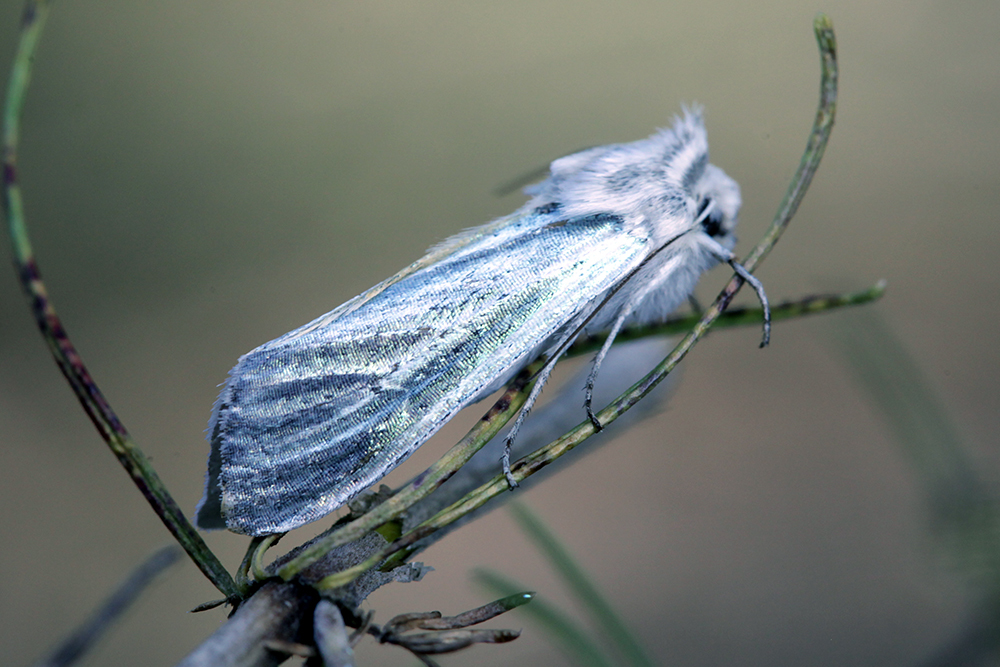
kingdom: Animalia
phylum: Arthropoda
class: Insecta
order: Lepidoptera
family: Noctuidae
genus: Cucullia
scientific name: Cucullia splendida
